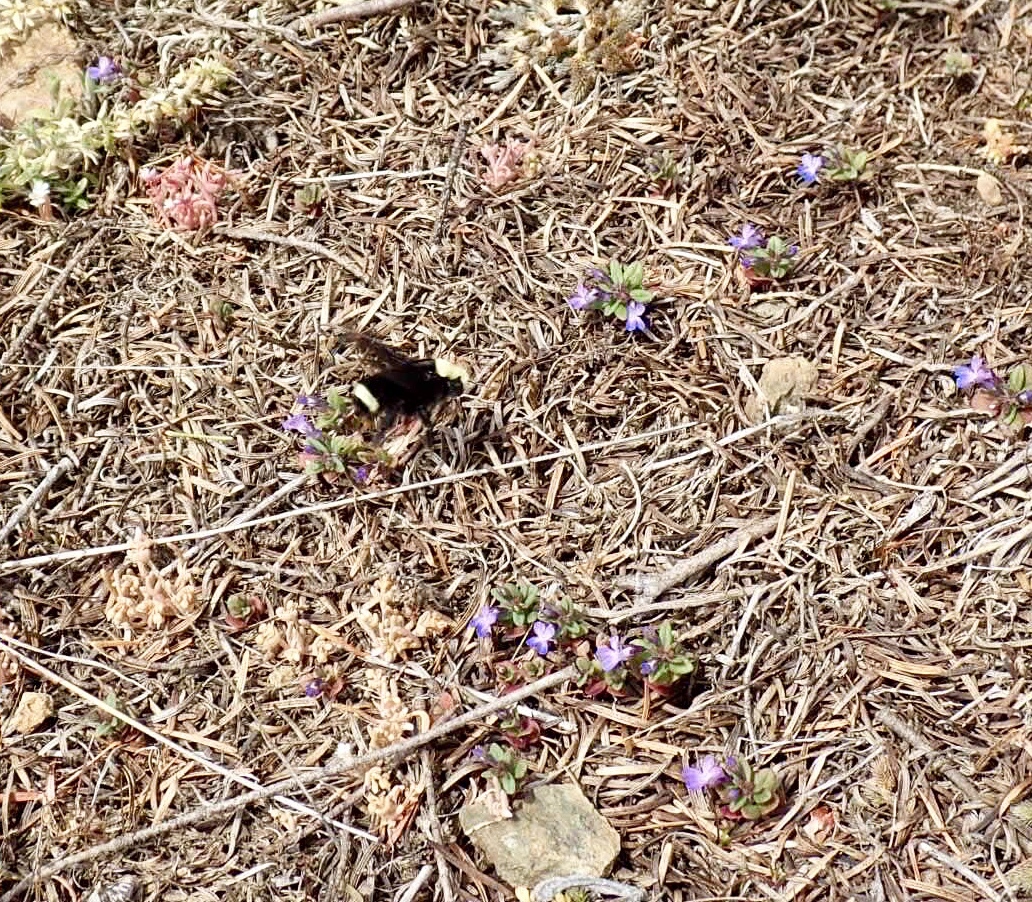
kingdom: Animalia
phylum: Arthropoda
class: Insecta
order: Hymenoptera
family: Apidae
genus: Pyrobombus
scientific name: Pyrobombus
